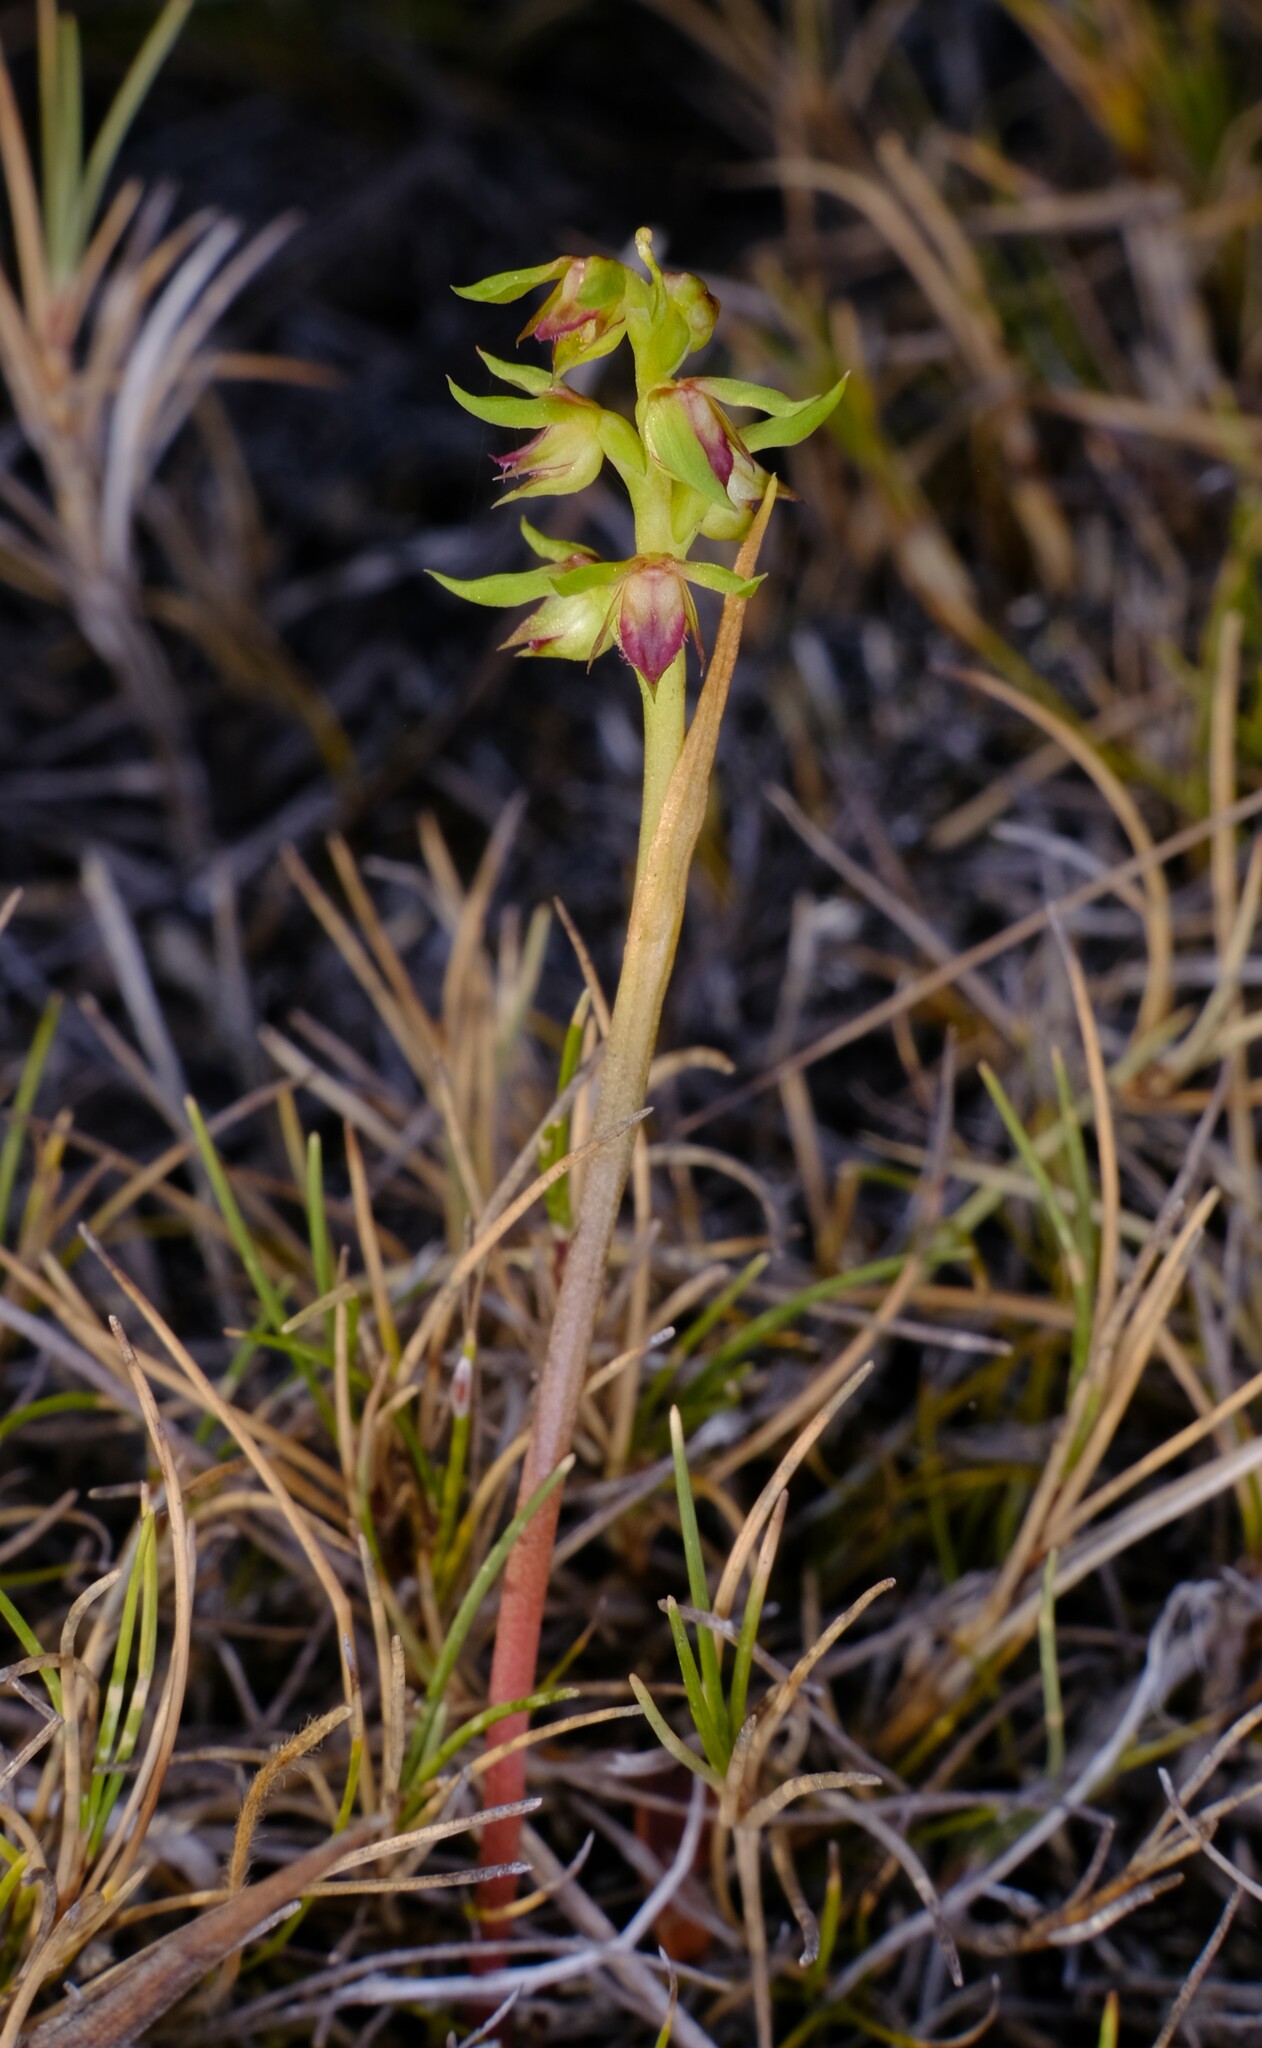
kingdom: Plantae
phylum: Tracheophyta
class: Liliopsida
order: Asparagales
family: Orchidaceae
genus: Genoplesium
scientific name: Genoplesium archeri
